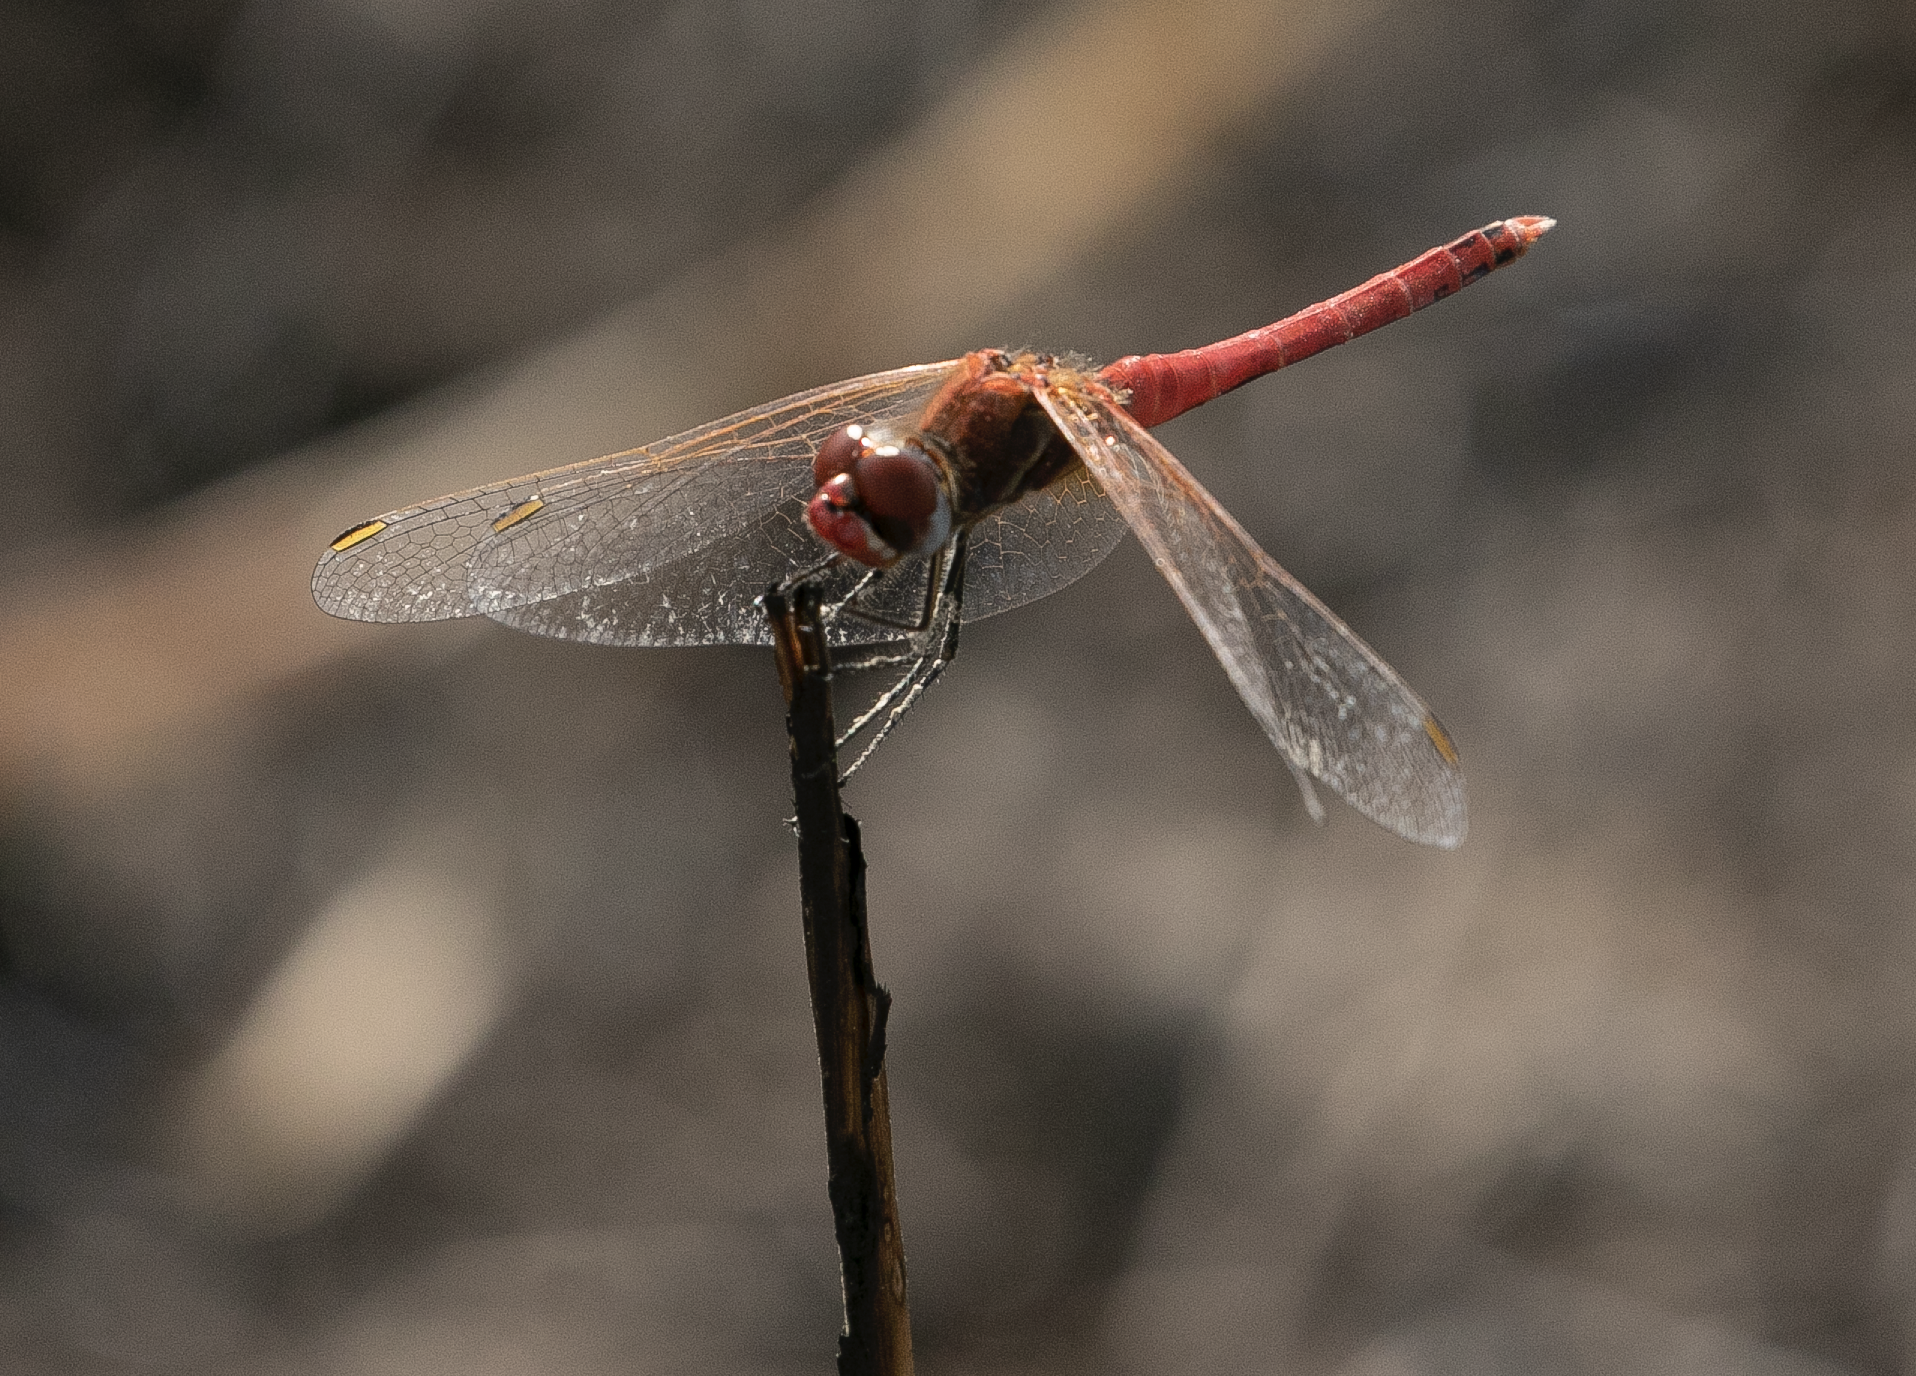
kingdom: Animalia
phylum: Arthropoda
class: Insecta
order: Odonata
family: Libellulidae
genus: Sympetrum
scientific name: Sympetrum fonscolombii
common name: Red-veined darter
